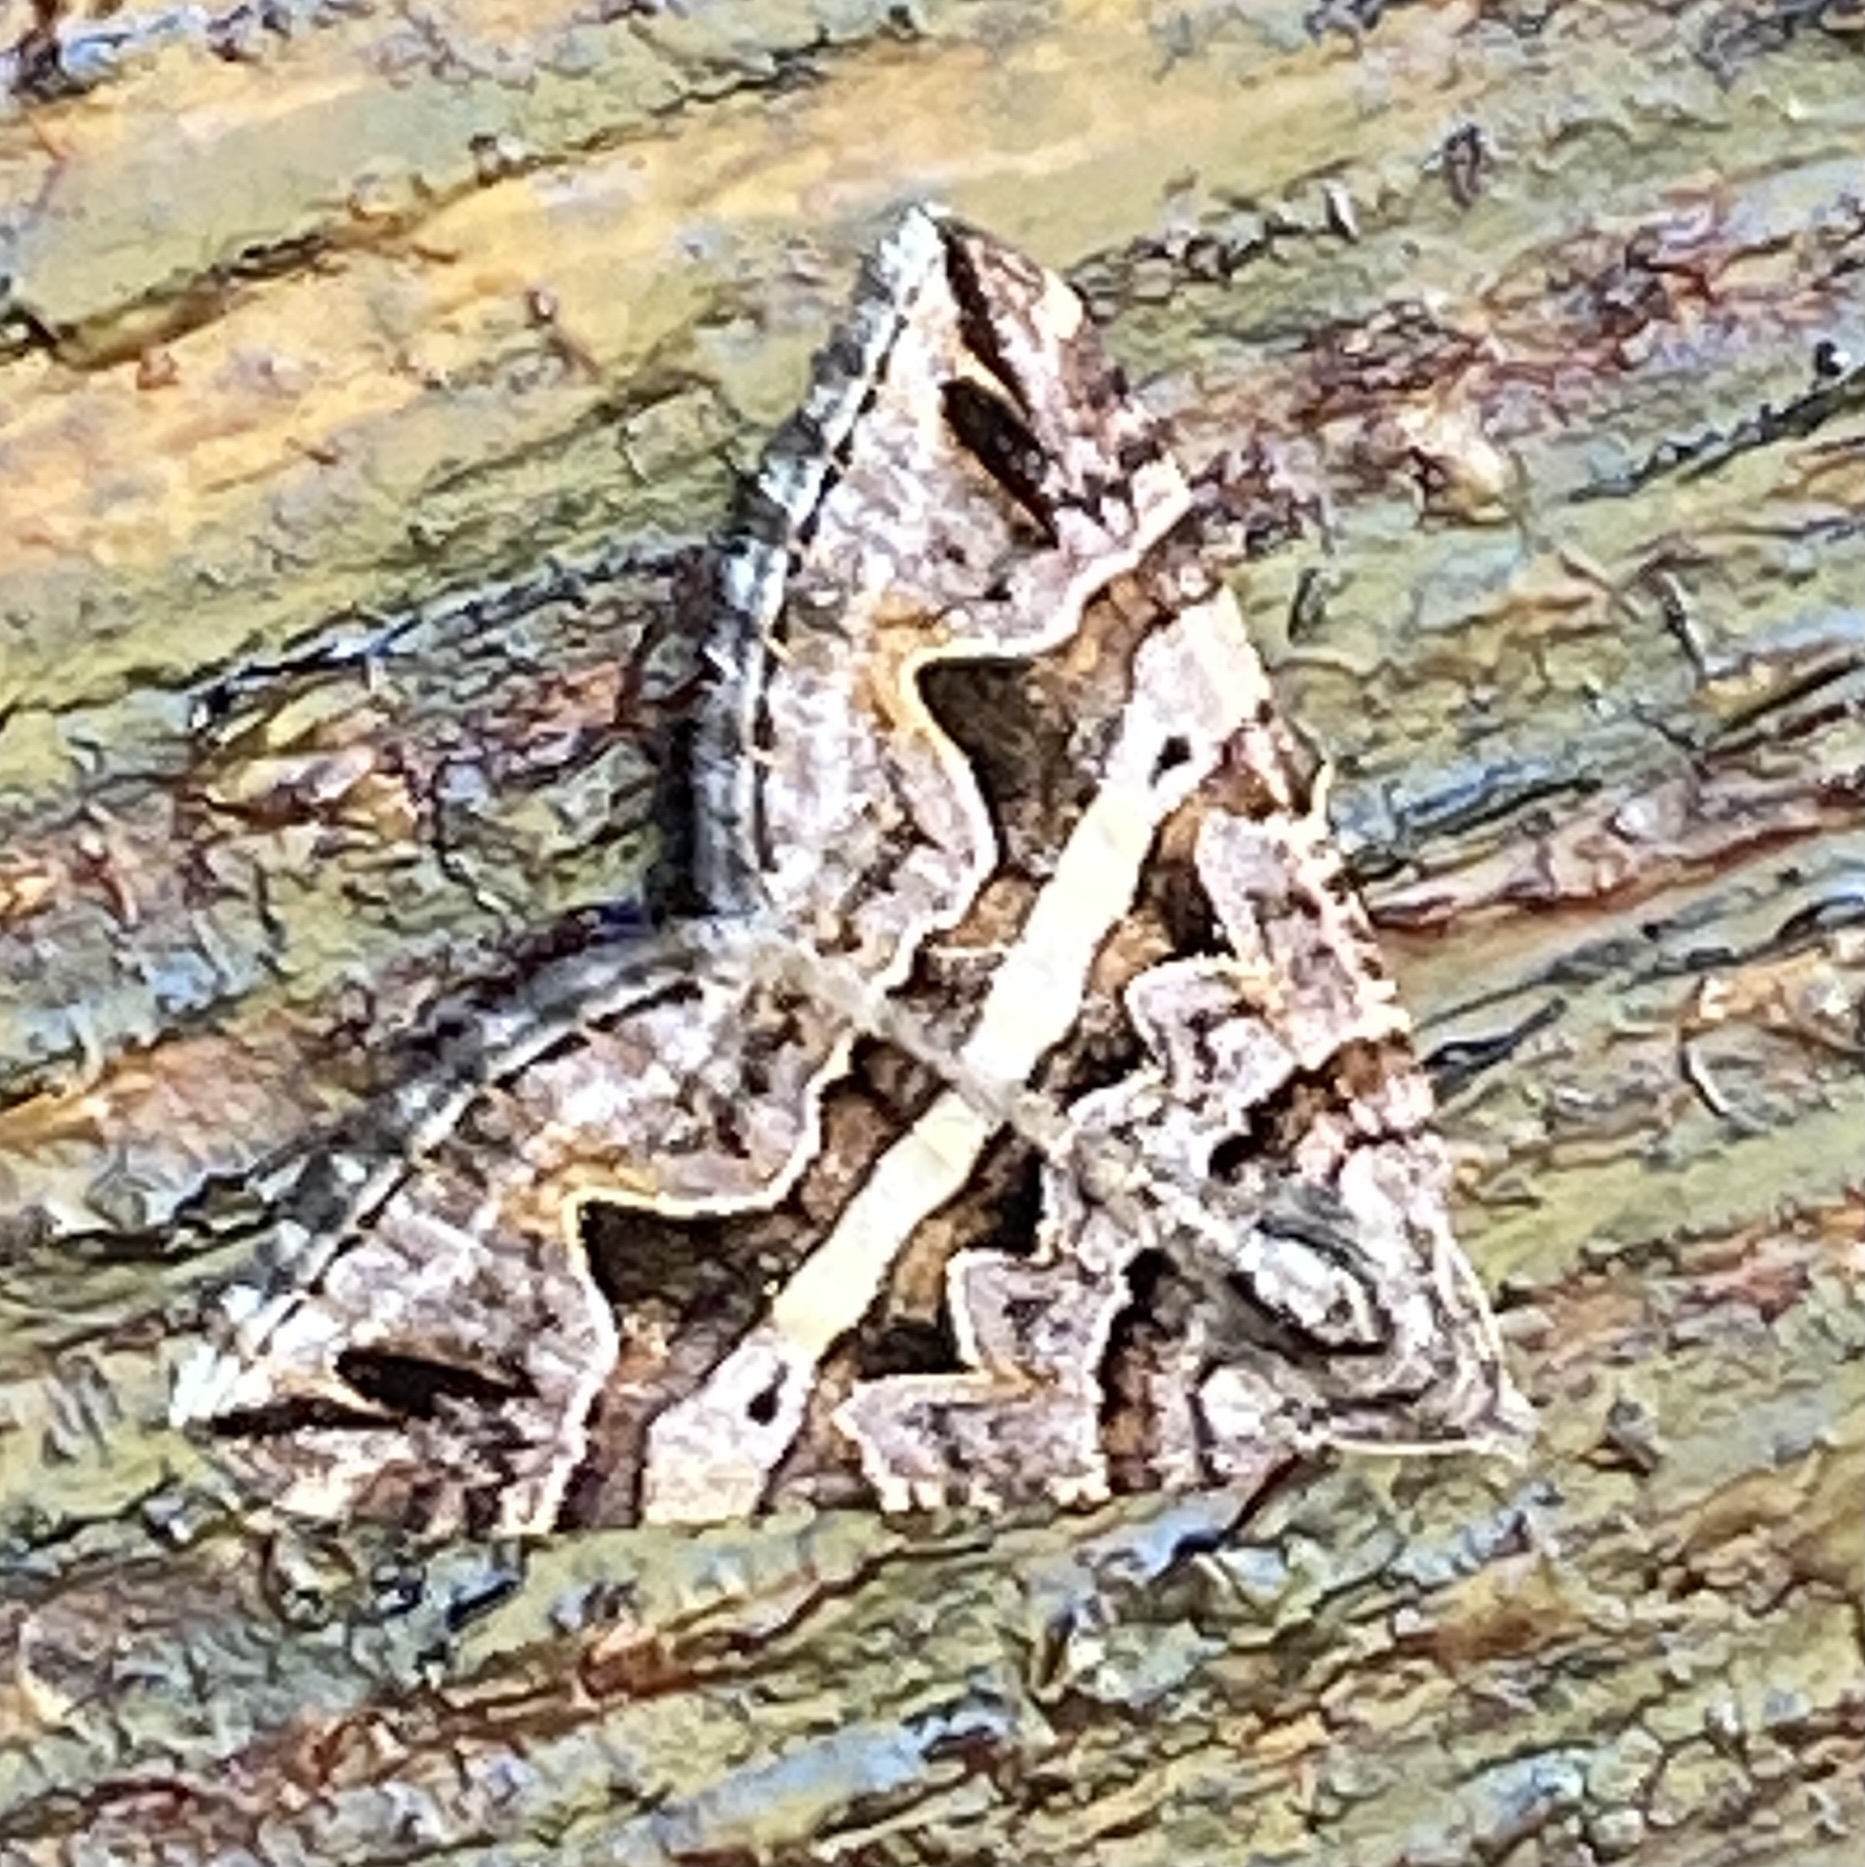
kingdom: Animalia
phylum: Arthropoda
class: Insecta
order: Lepidoptera
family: Geometridae
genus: Haplolabida
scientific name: Haplolabida inaequata
